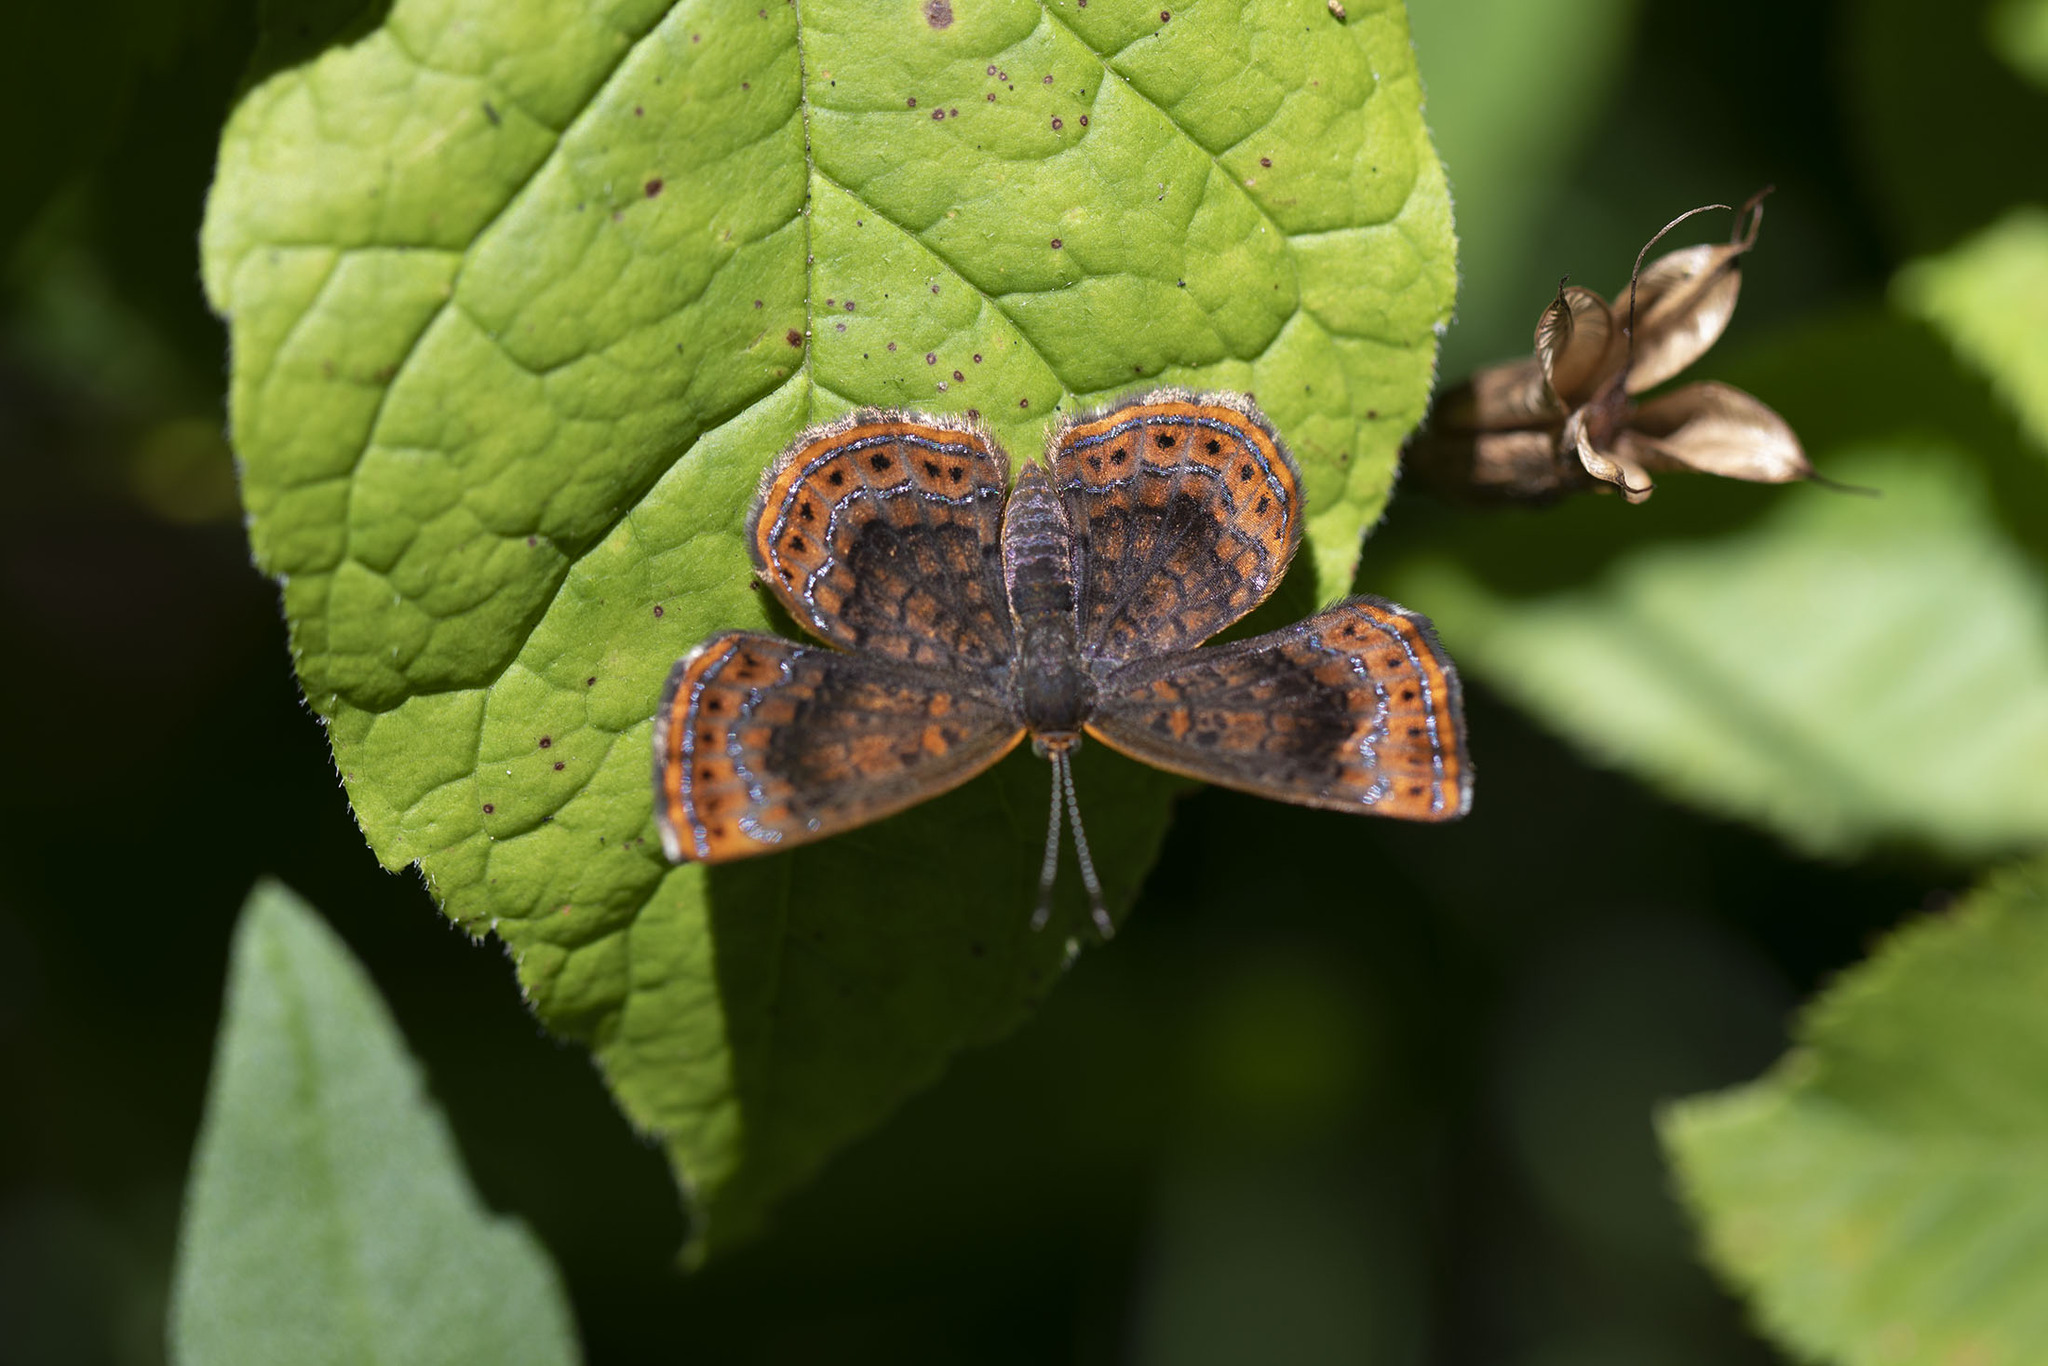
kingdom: Animalia
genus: Calephelis
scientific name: Calephelis borealis
